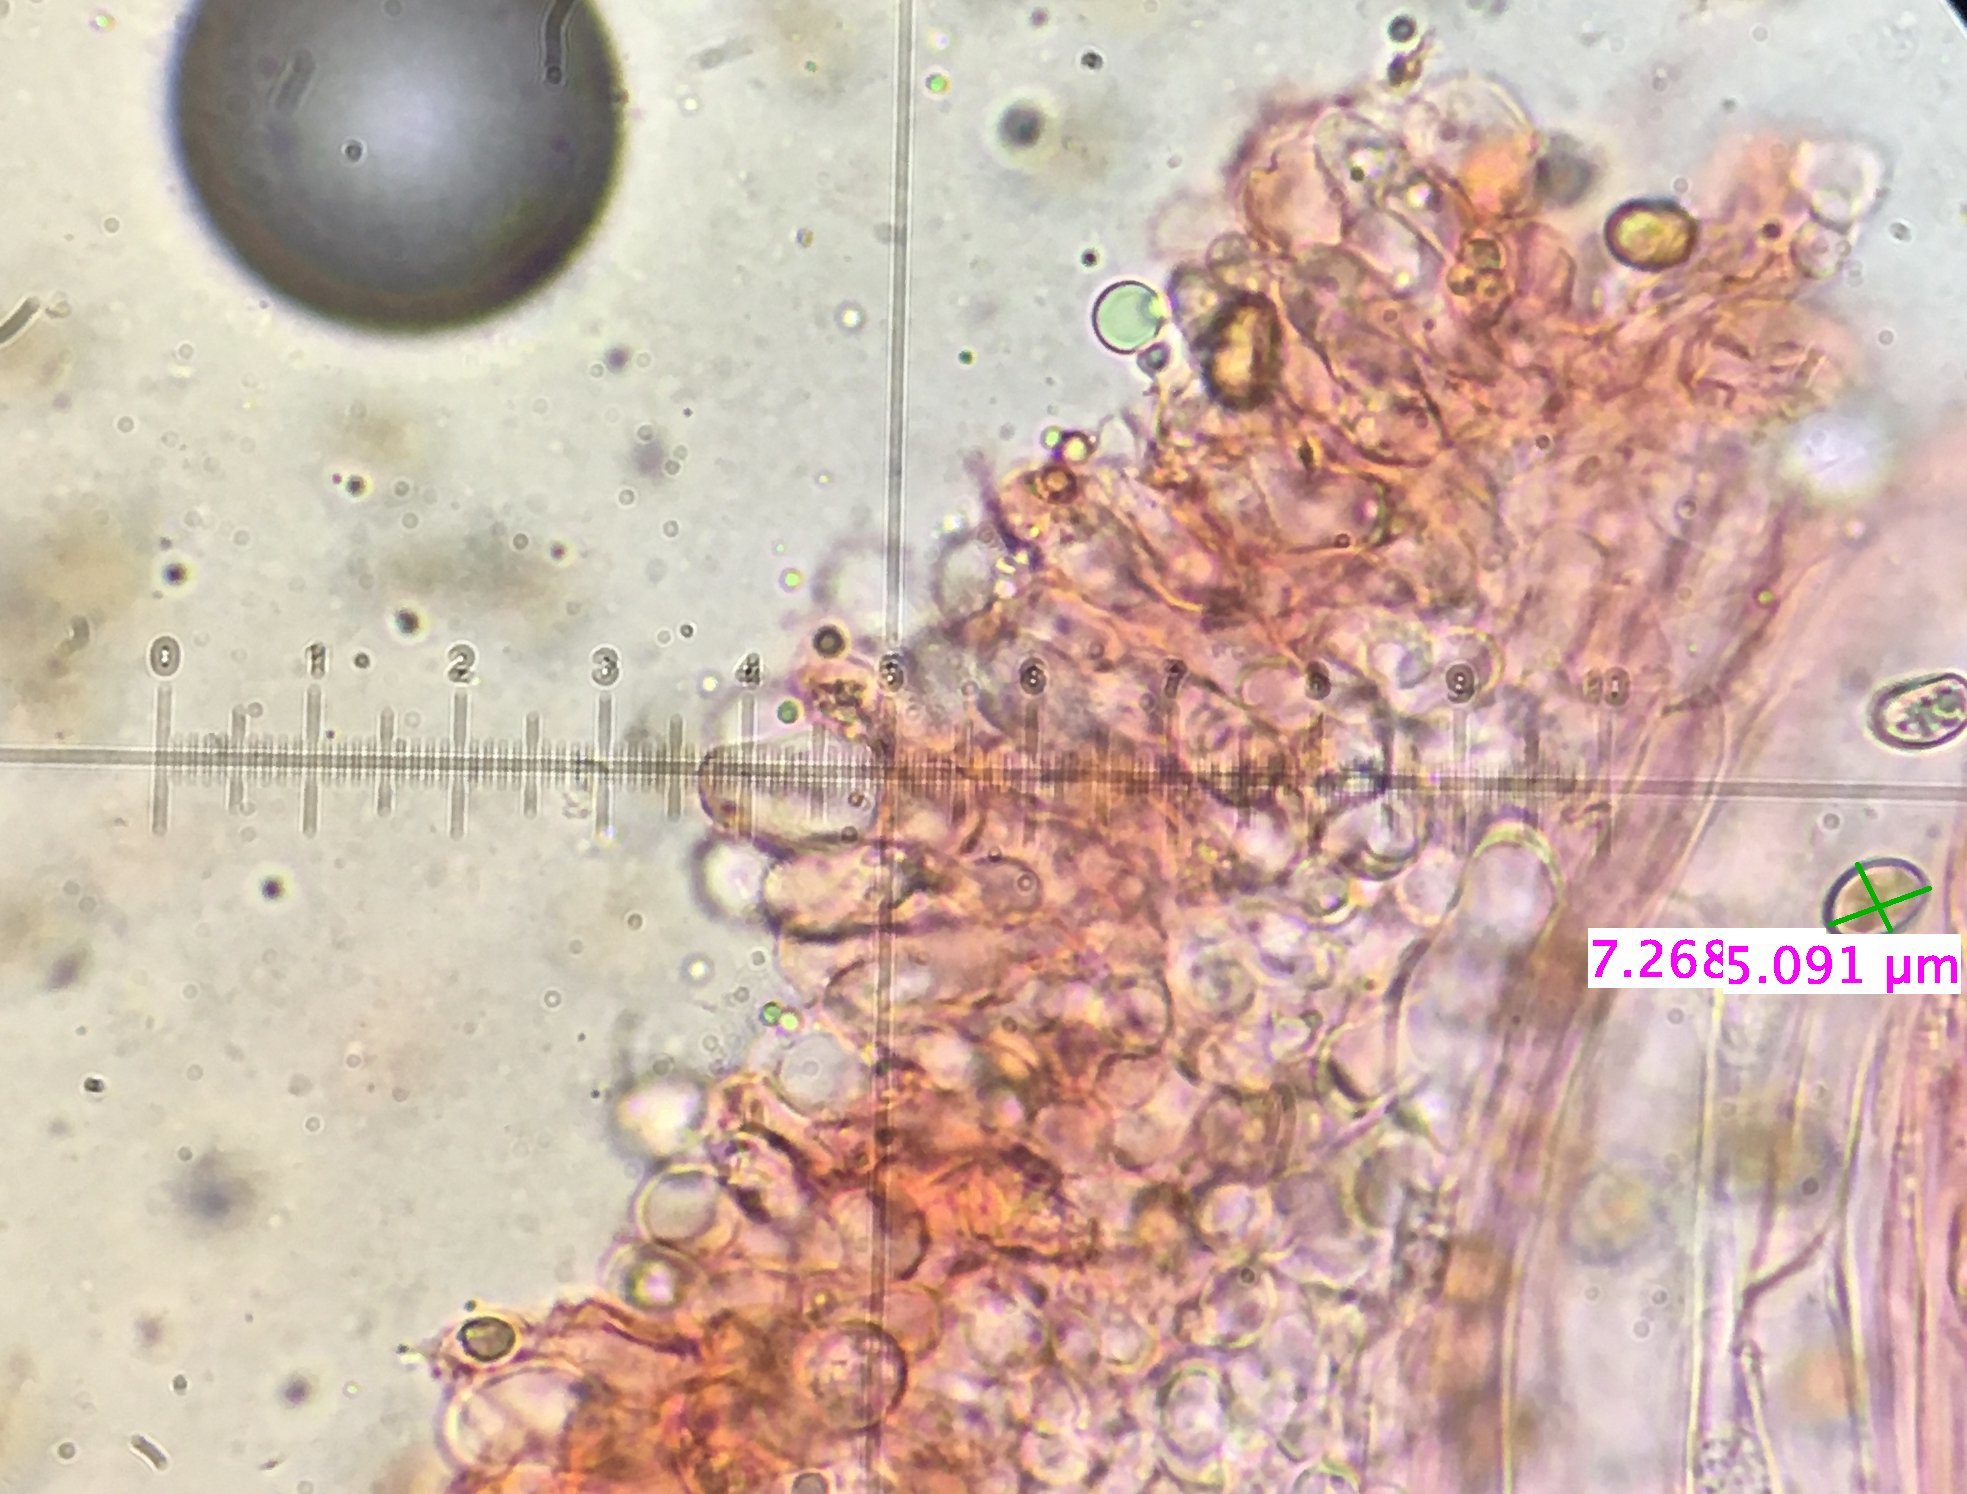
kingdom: Fungi
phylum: Basidiomycota
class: Agaricomycetes
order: Agaricales
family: Crepidotaceae
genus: Simocybe
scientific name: Simocybe serrulata
